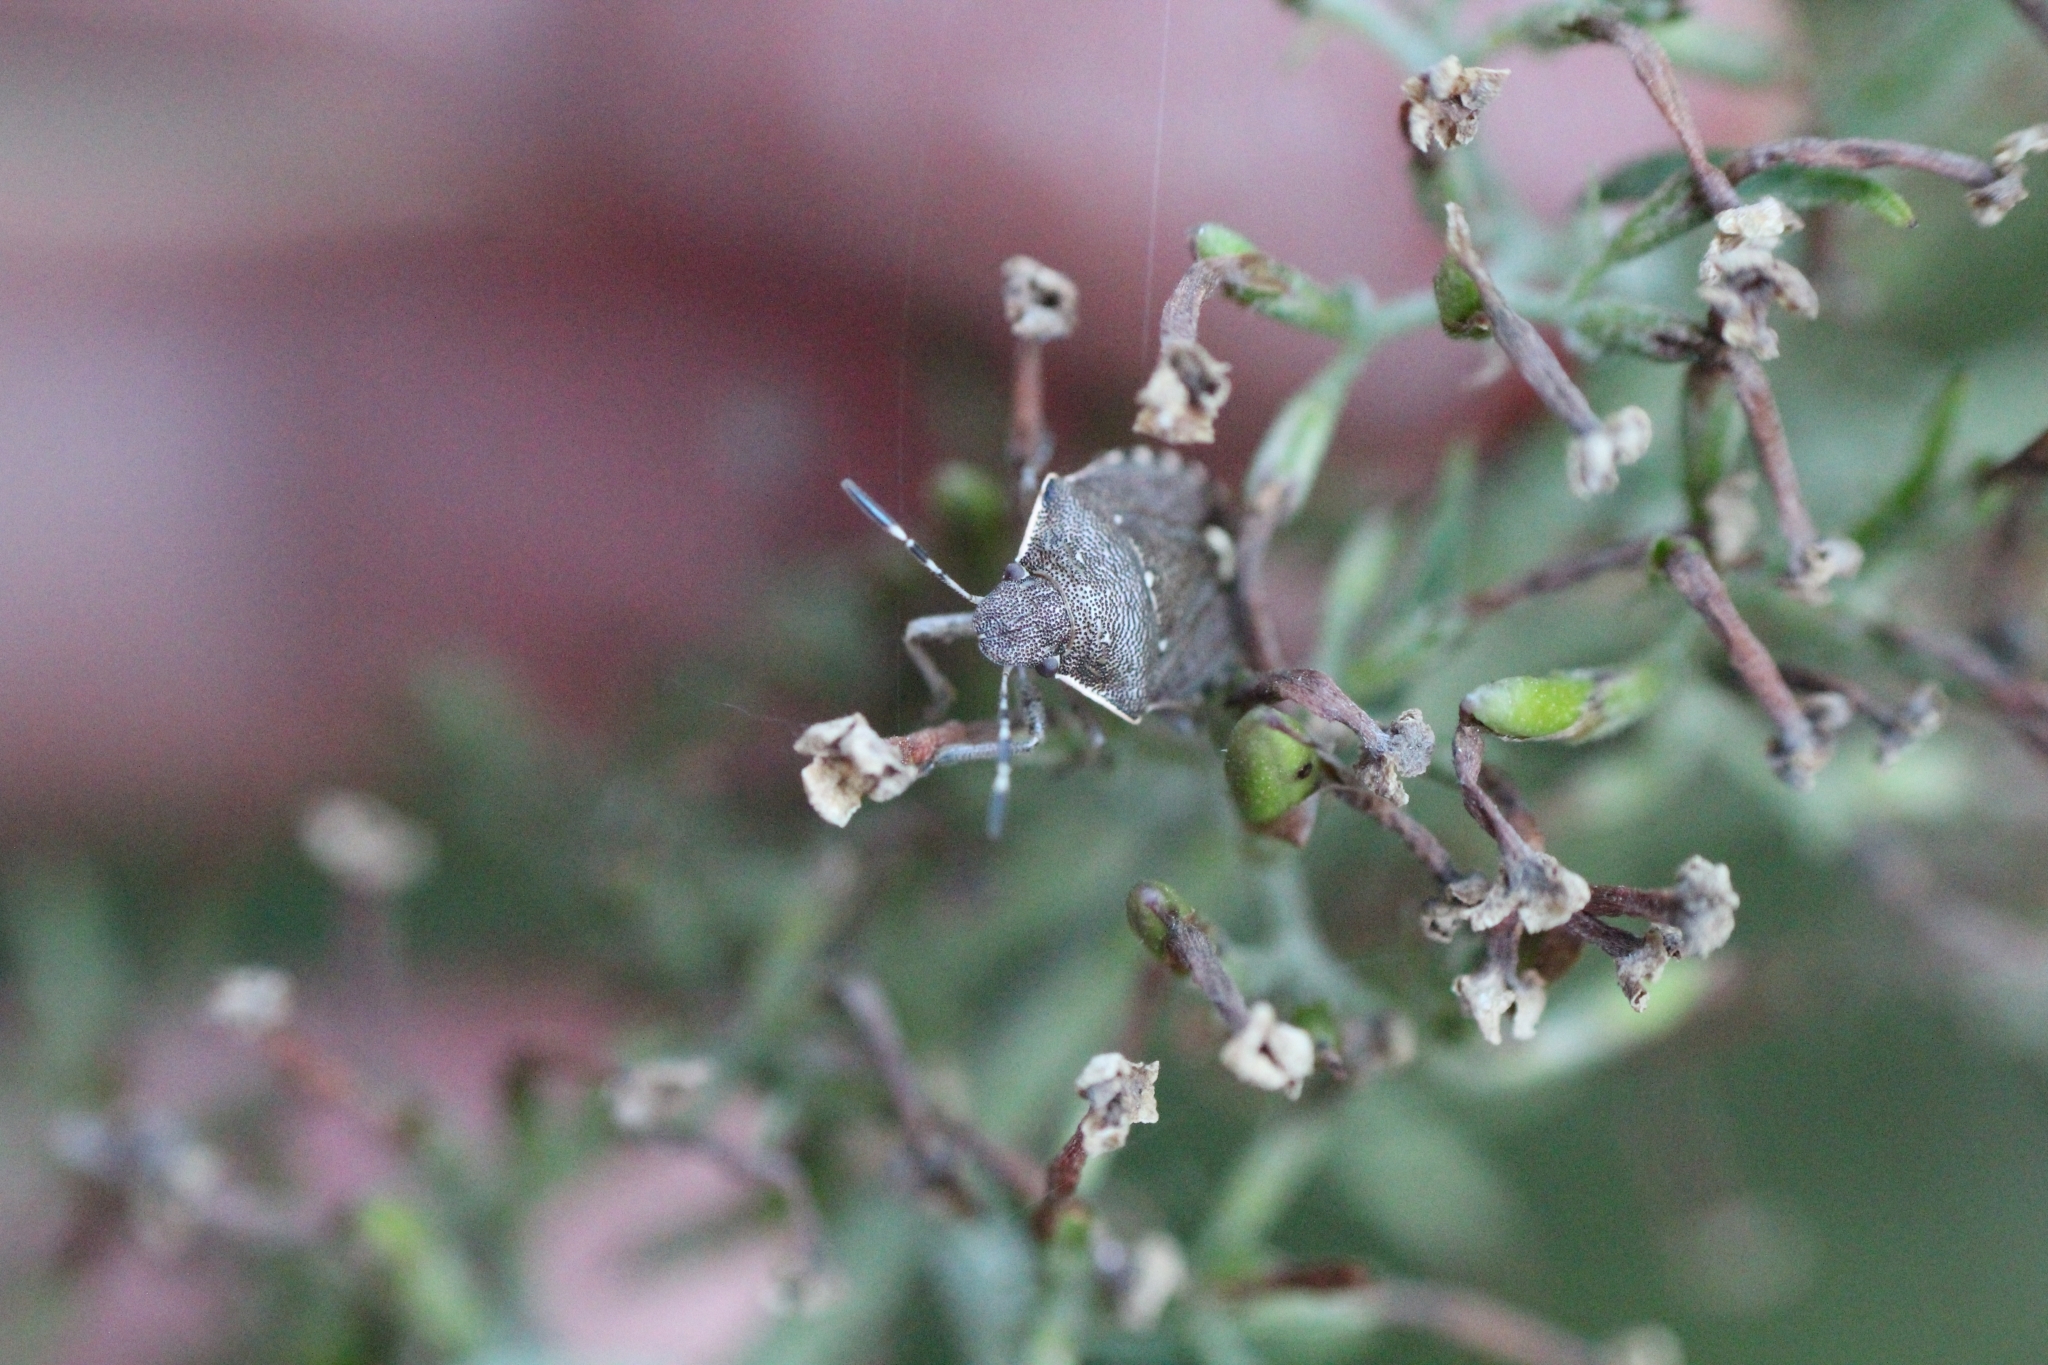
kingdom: Animalia
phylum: Arthropoda
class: Insecta
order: Hemiptera
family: Pentatomidae
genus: Holcostethus
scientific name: Holcostethus sphacelatus
